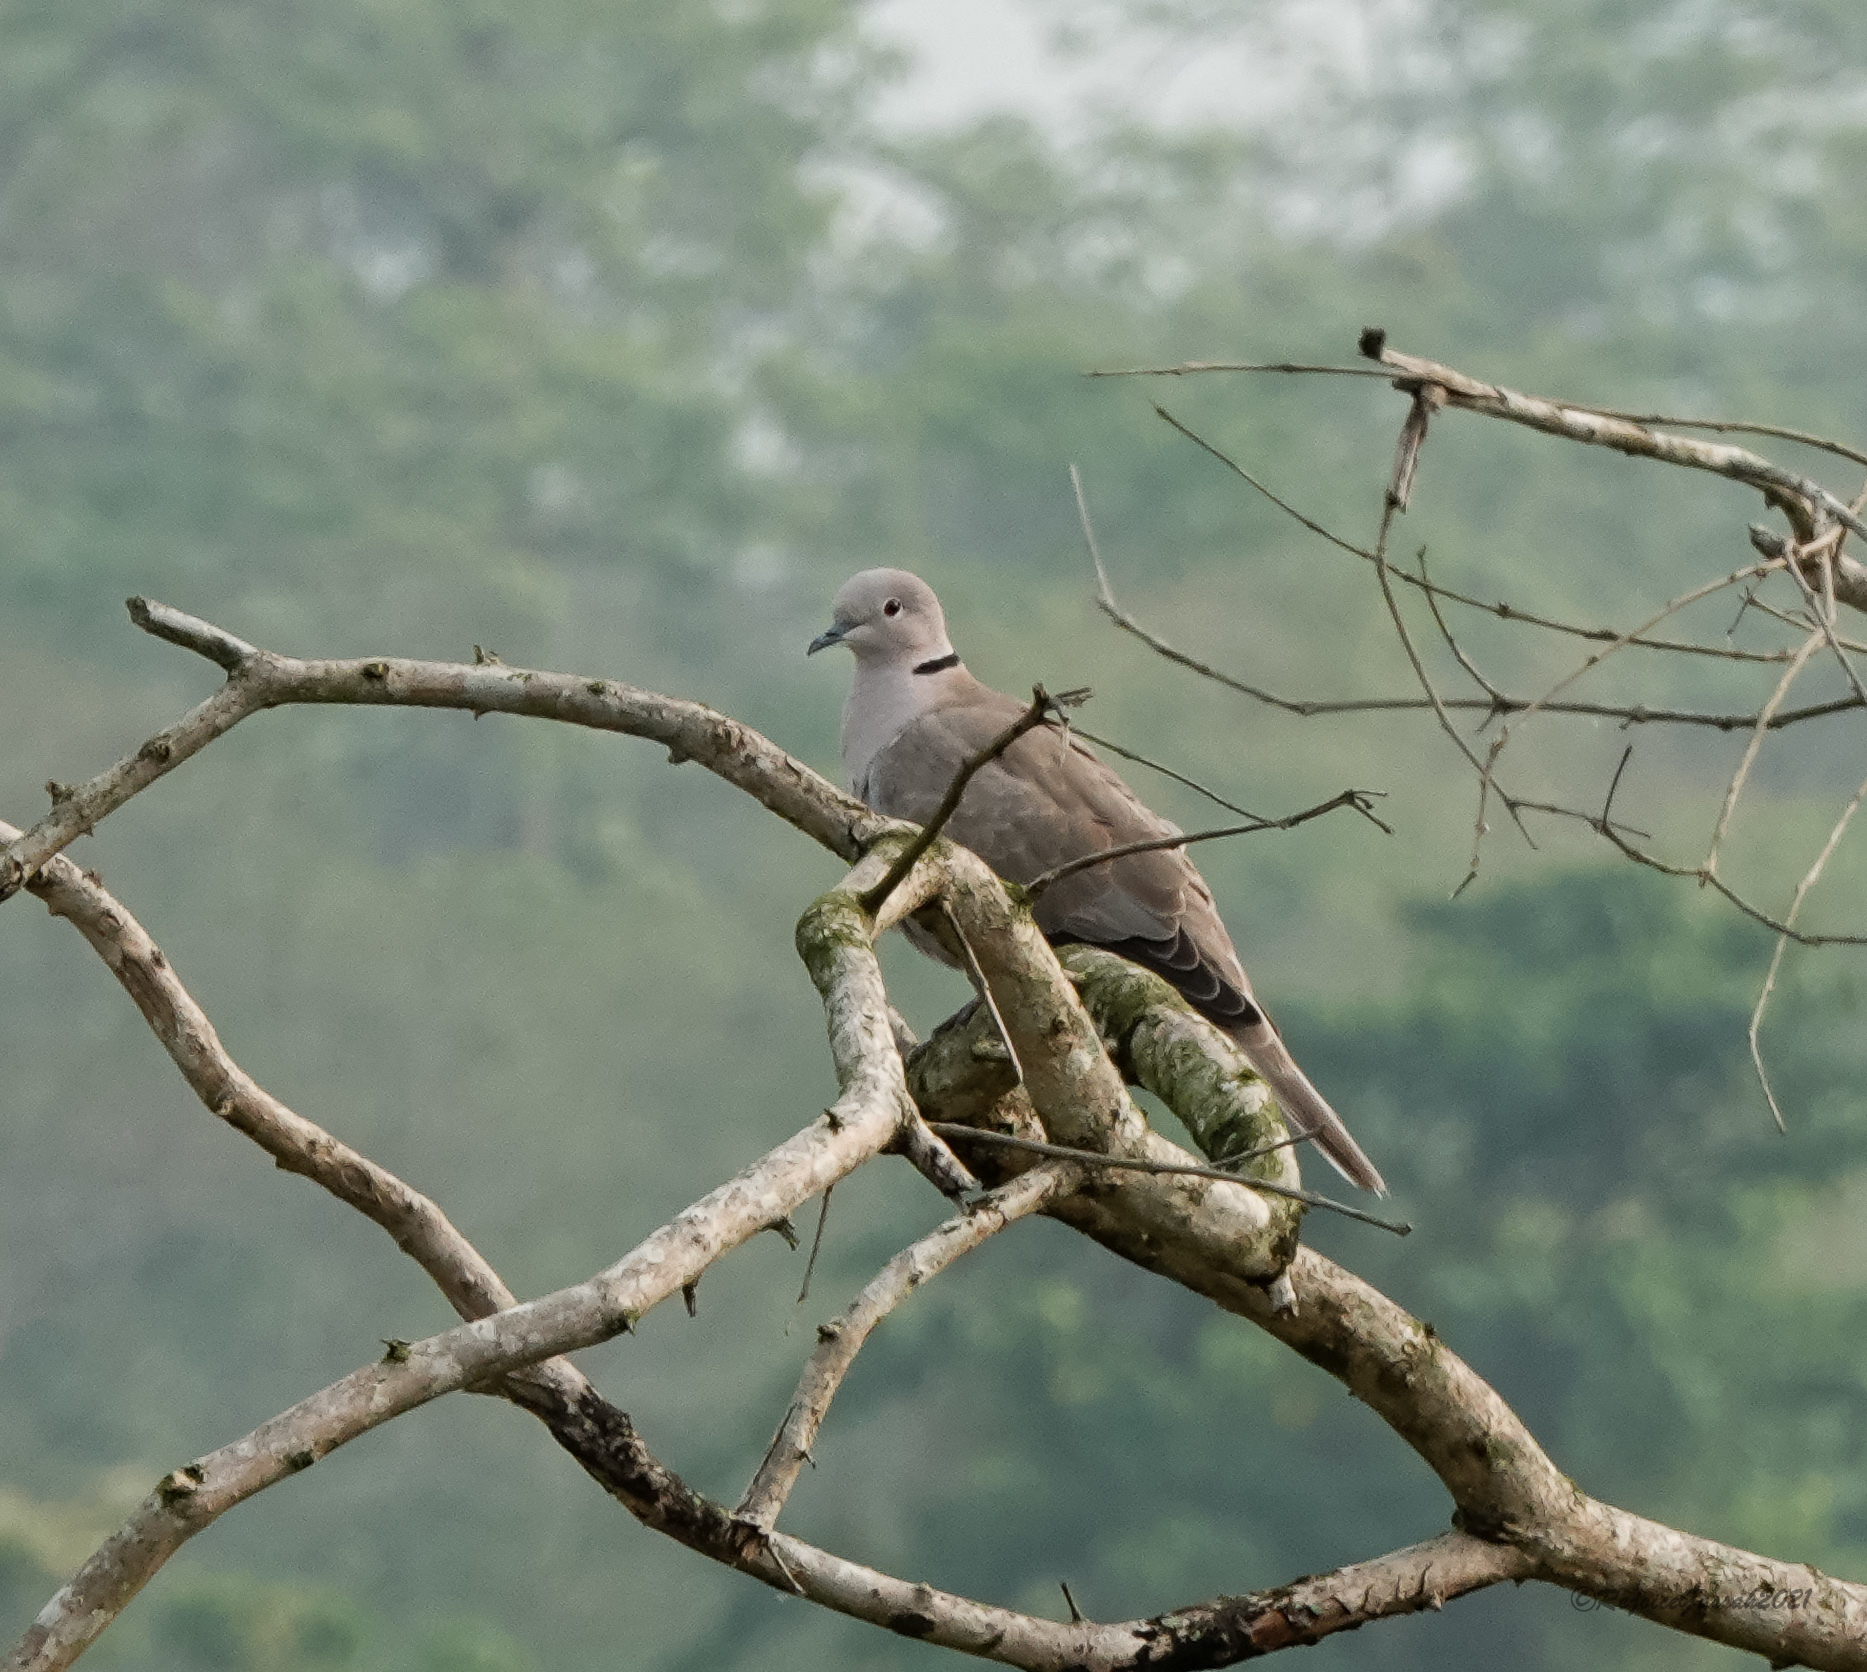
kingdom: Animalia
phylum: Chordata
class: Aves
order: Columbiformes
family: Columbidae
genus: Streptopelia
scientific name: Streptopelia decaocto
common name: Eurasian collared dove
